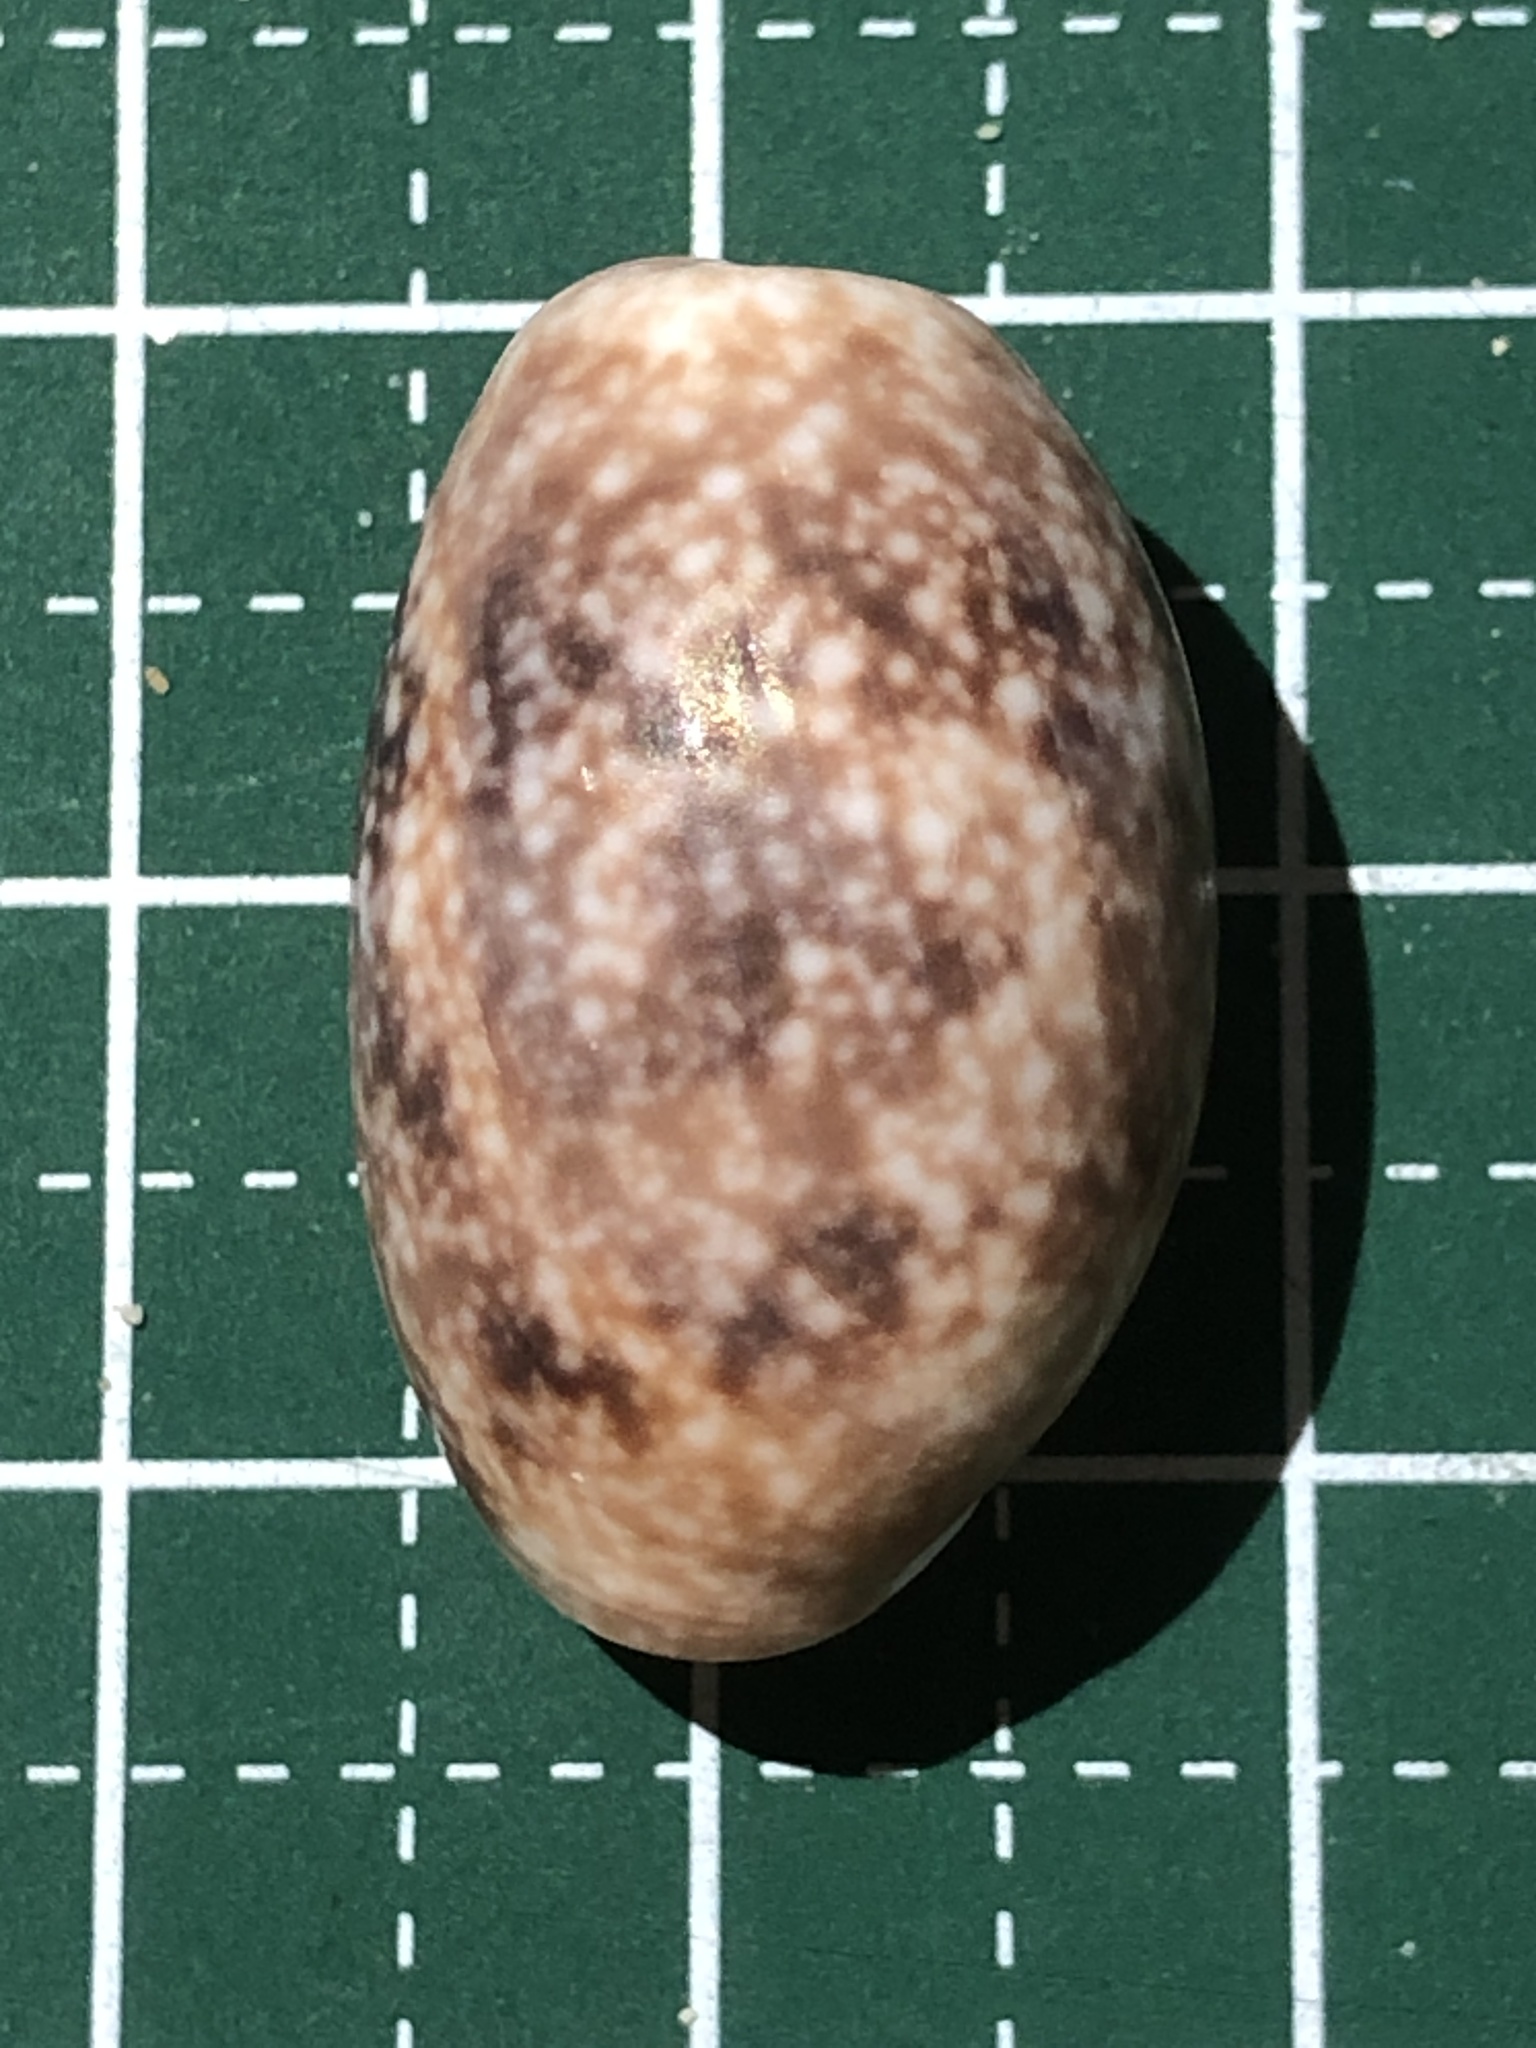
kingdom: Animalia
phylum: Mollusca
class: Gastropoda
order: Cephalaspidea
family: Bullidae
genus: Bulla
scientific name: Bulla vernicosa
